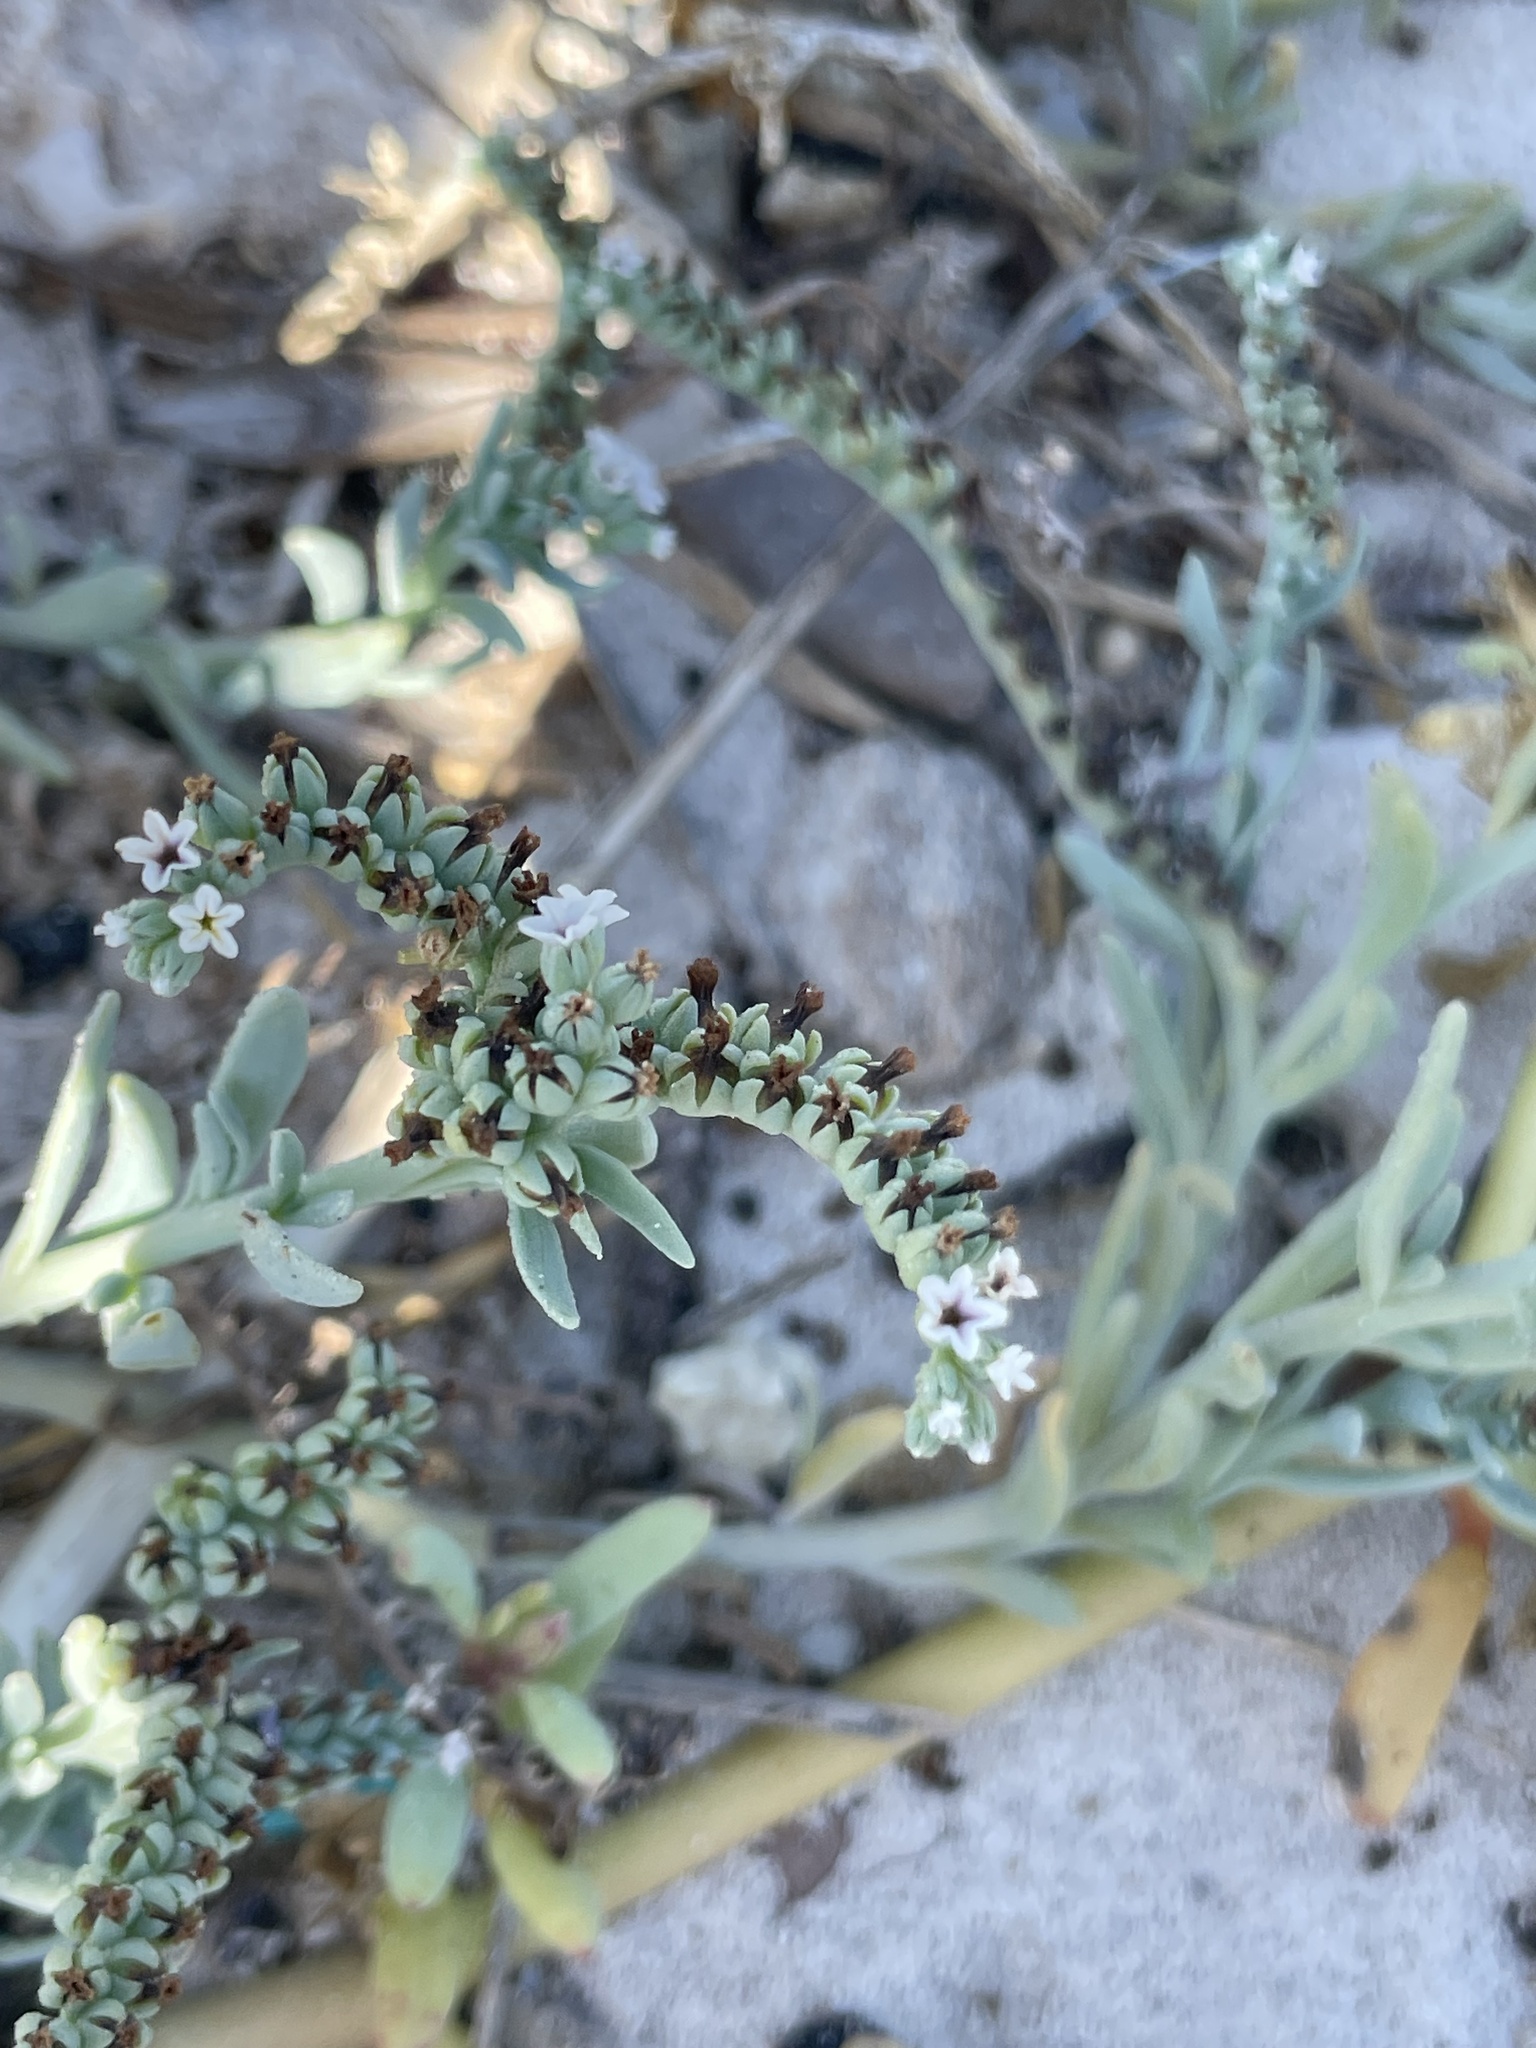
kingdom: Plantae
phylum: Tracheophyta
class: Magnoliopsida
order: Boraginales
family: Heliotropiaceae
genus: Heliotropium
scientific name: Heliotropium curassavicum
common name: Seaside heliotrope
